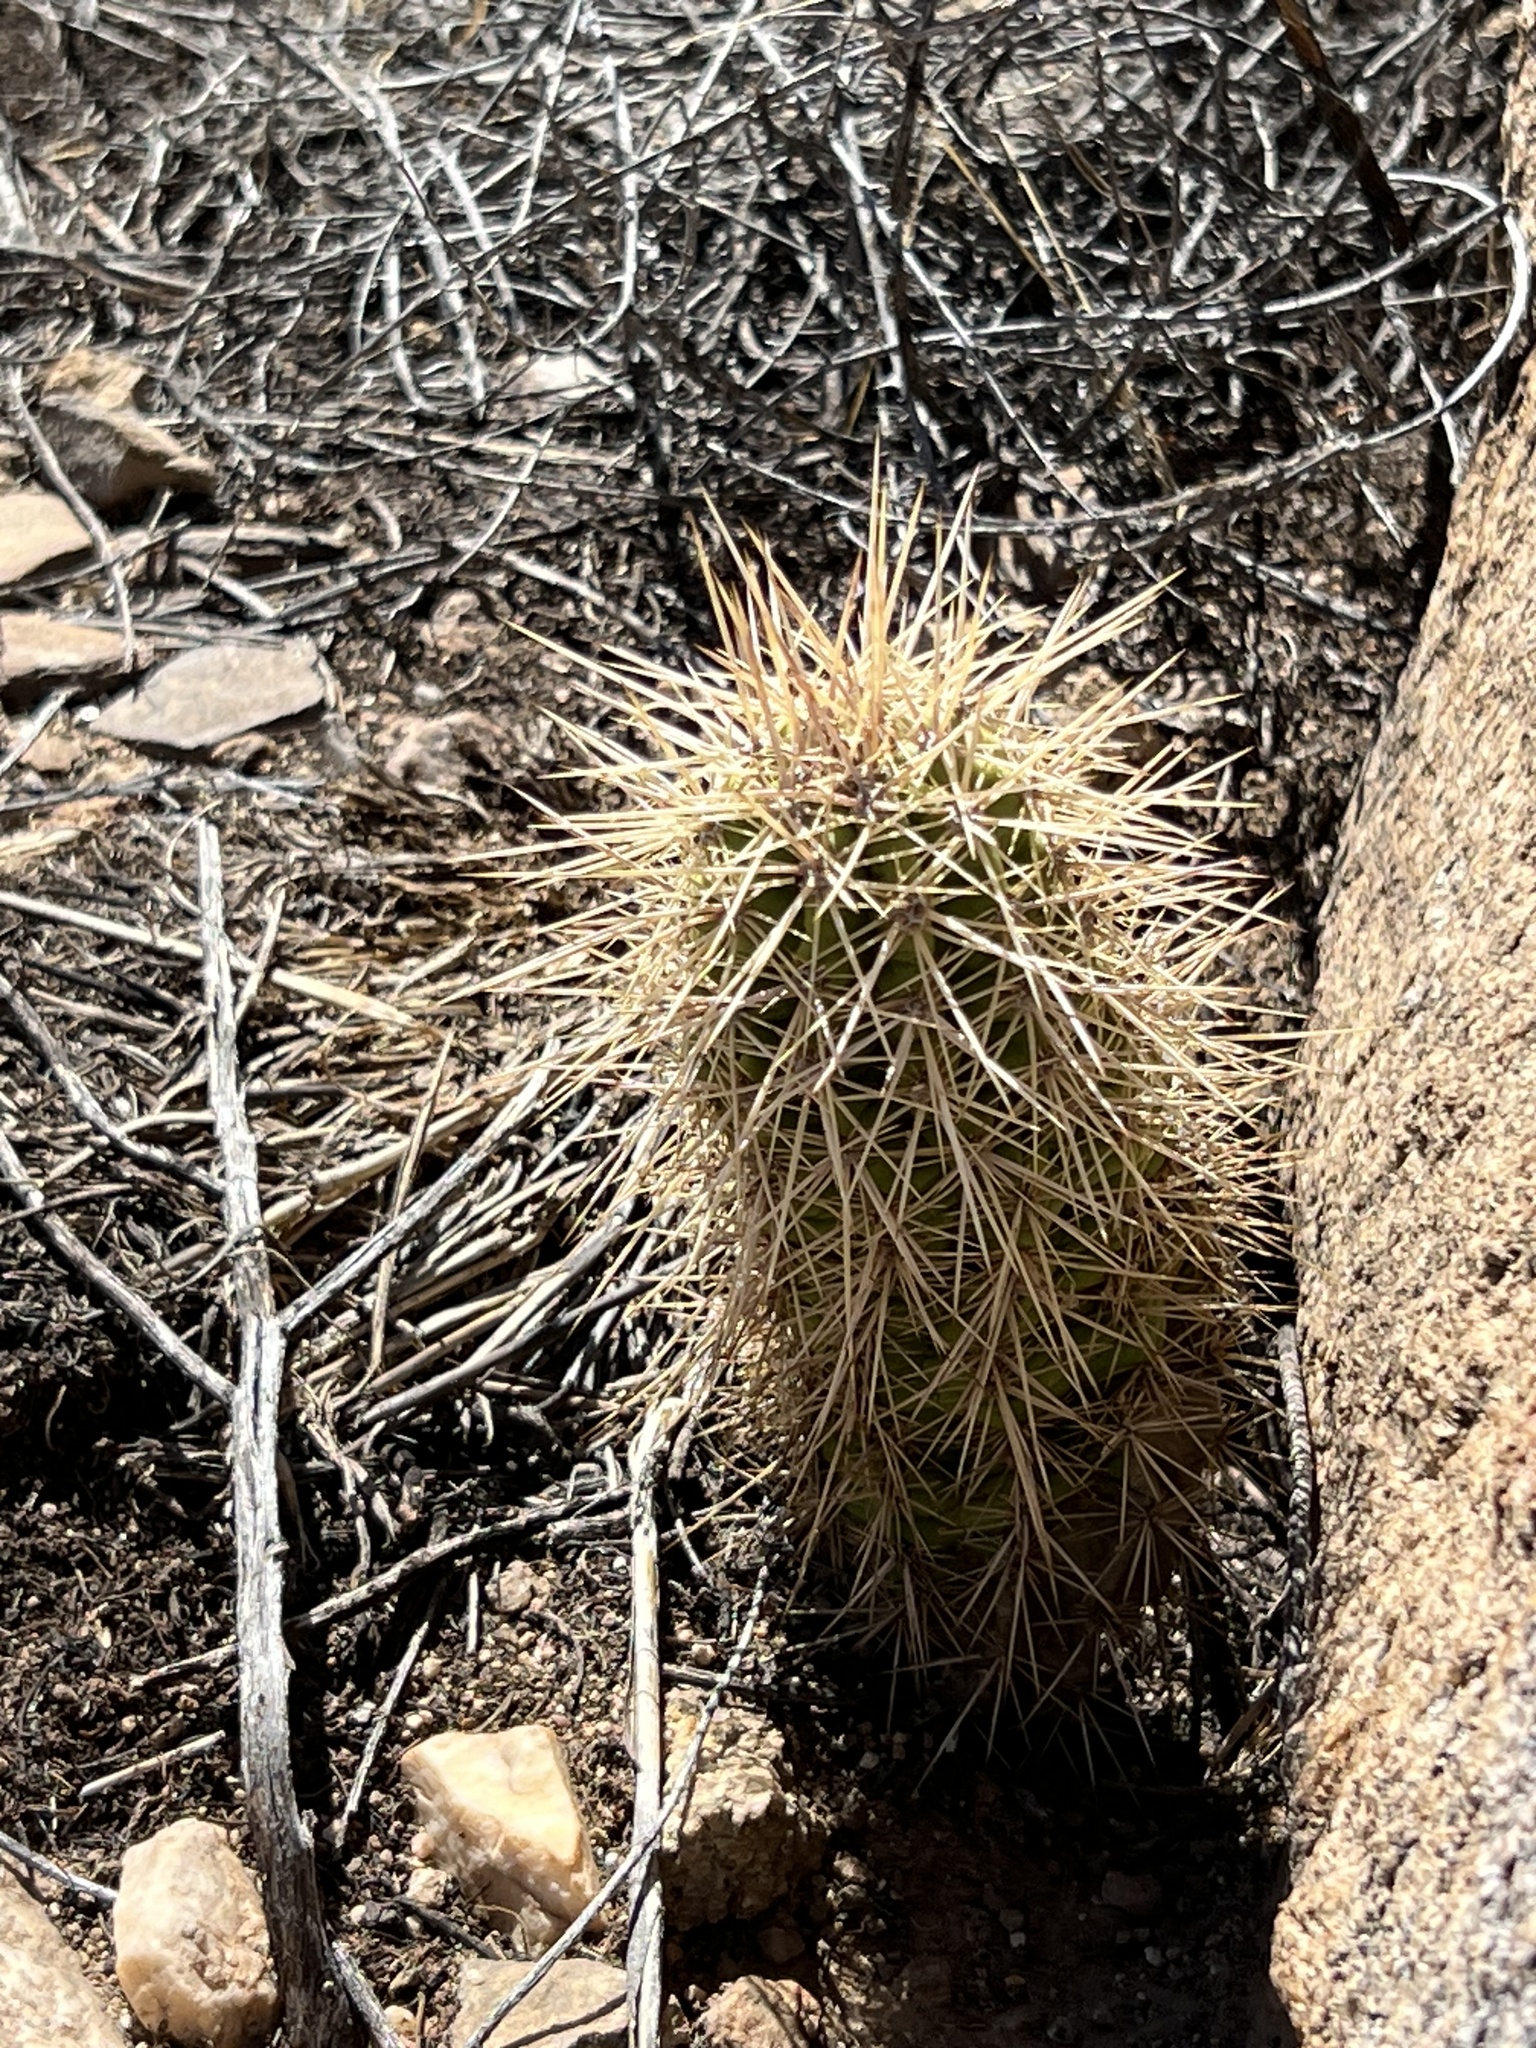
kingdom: Plantae
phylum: Tracheophyta
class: Magnoliopsida
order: Caryophyllales
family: Cactaceae
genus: Echinocereus
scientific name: Echinocereus coccineus
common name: Scarlet hedgehog cactus
